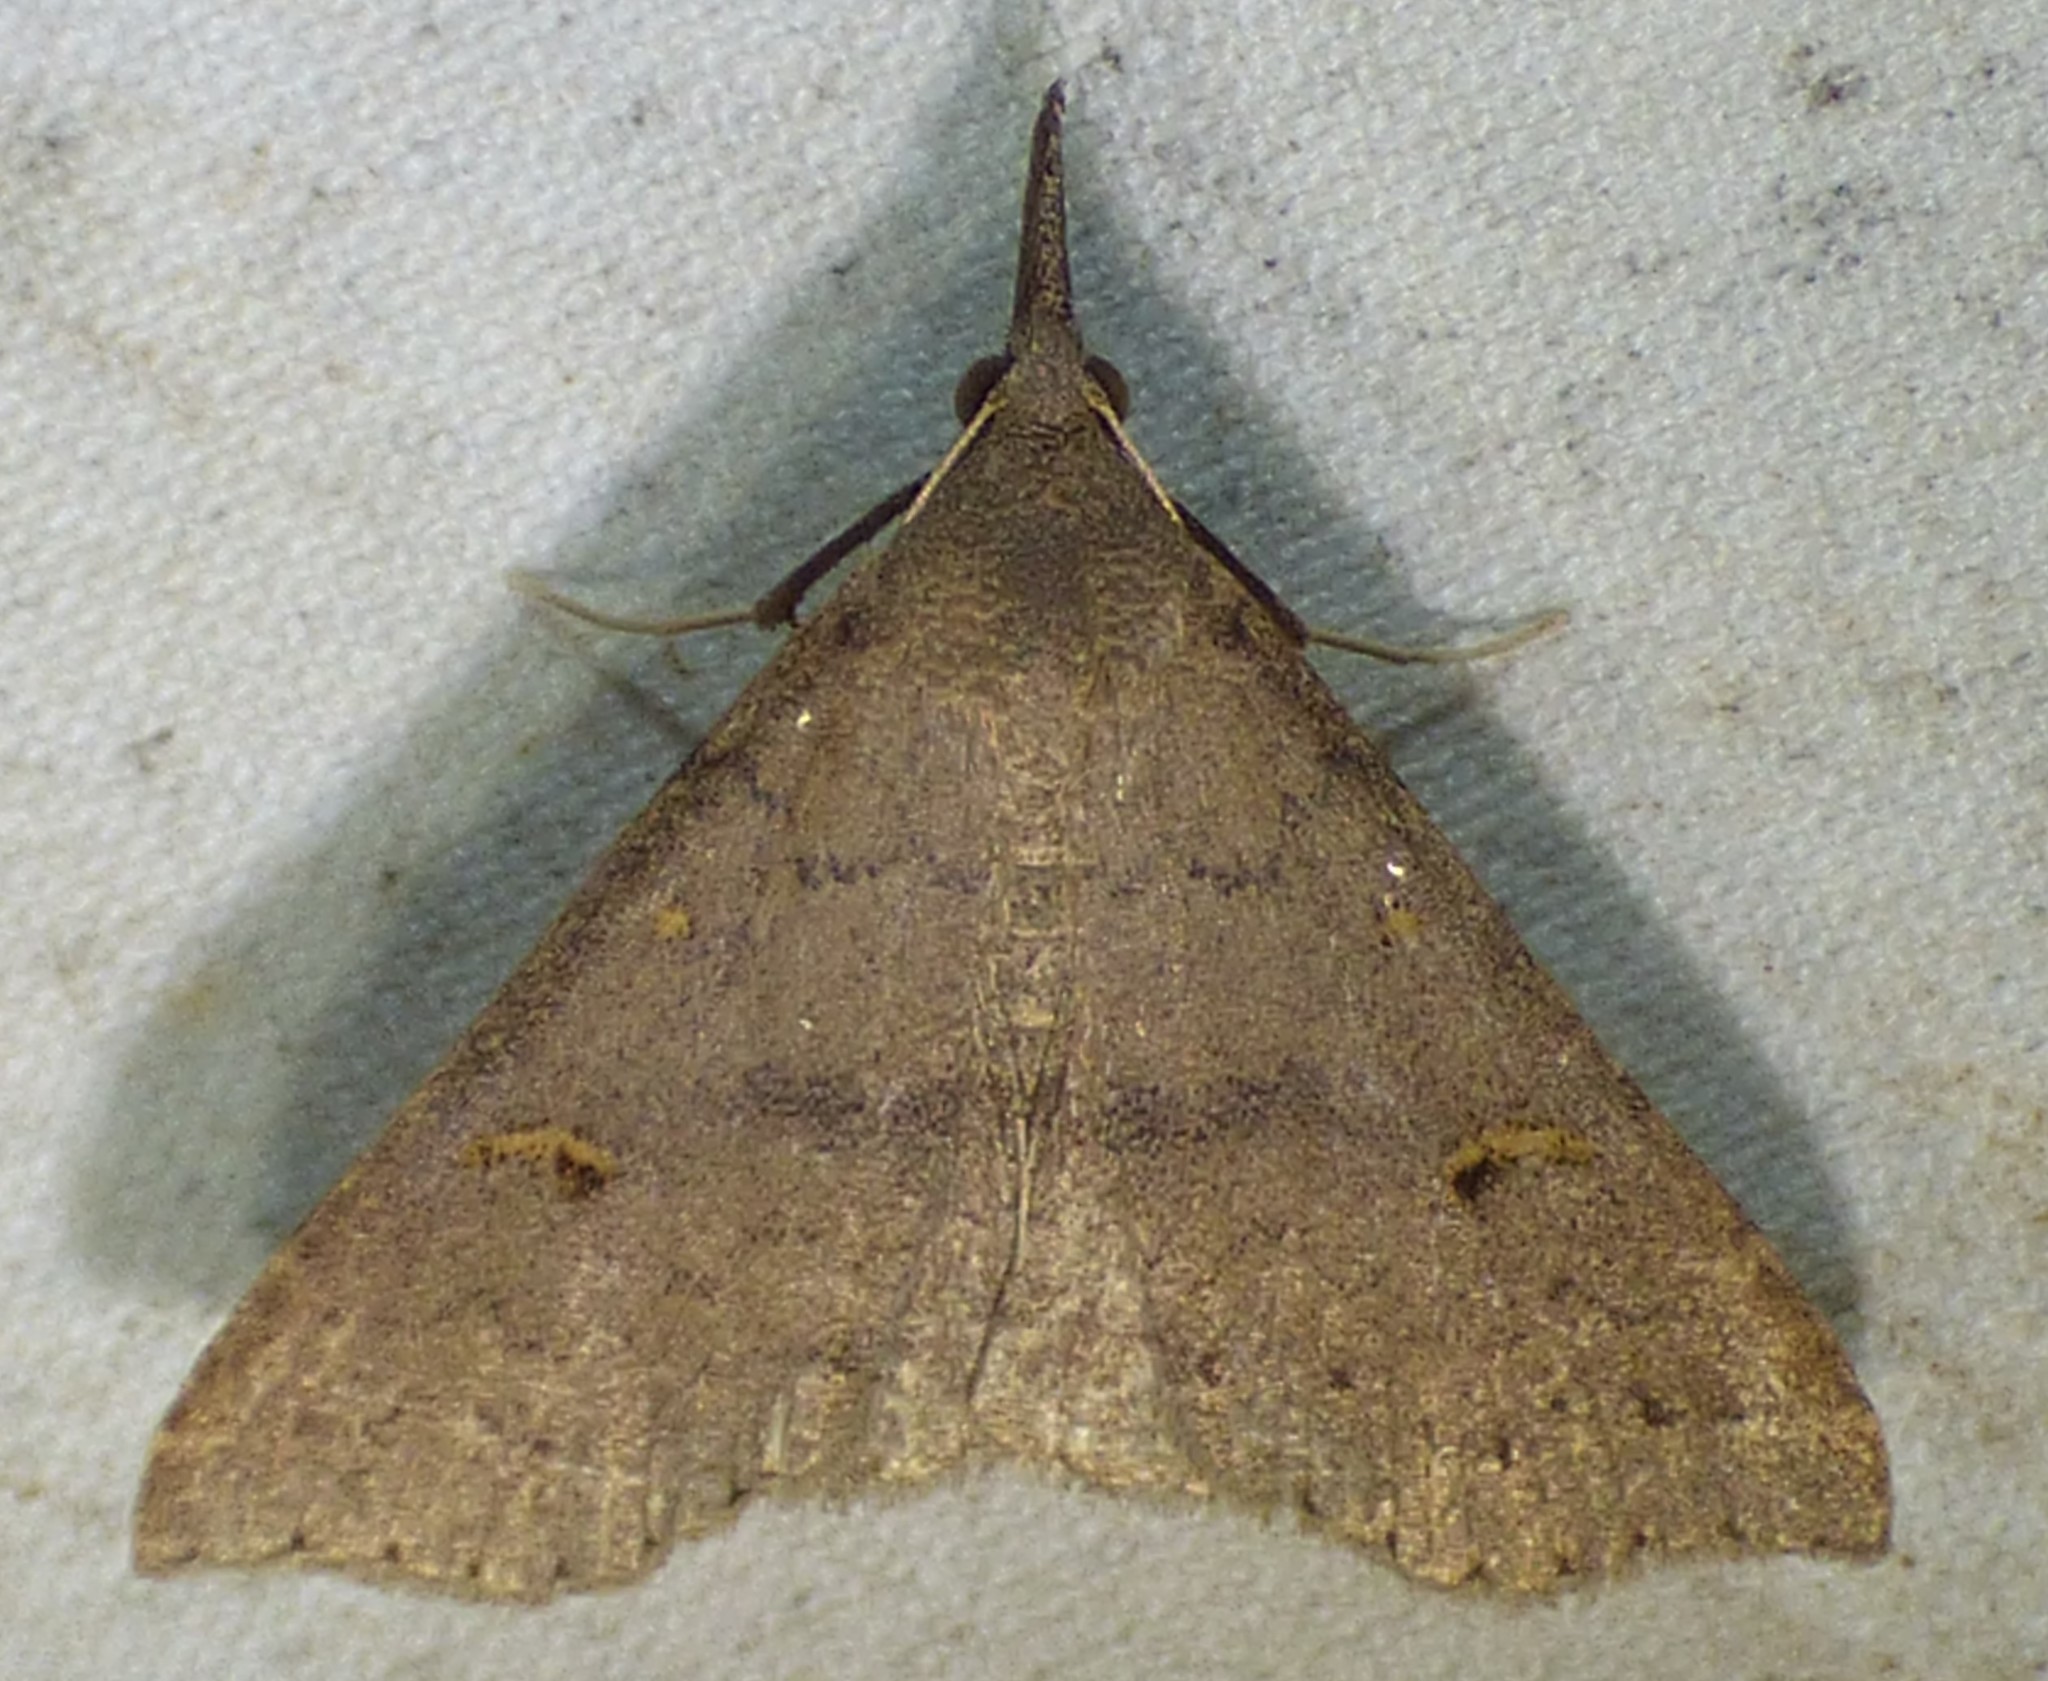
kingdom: Animalia
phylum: Arthropoda
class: Insecta
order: Lepidoptera
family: Erebidae
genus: Renia
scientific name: Renia adspergillus
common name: Speckled renia moth
